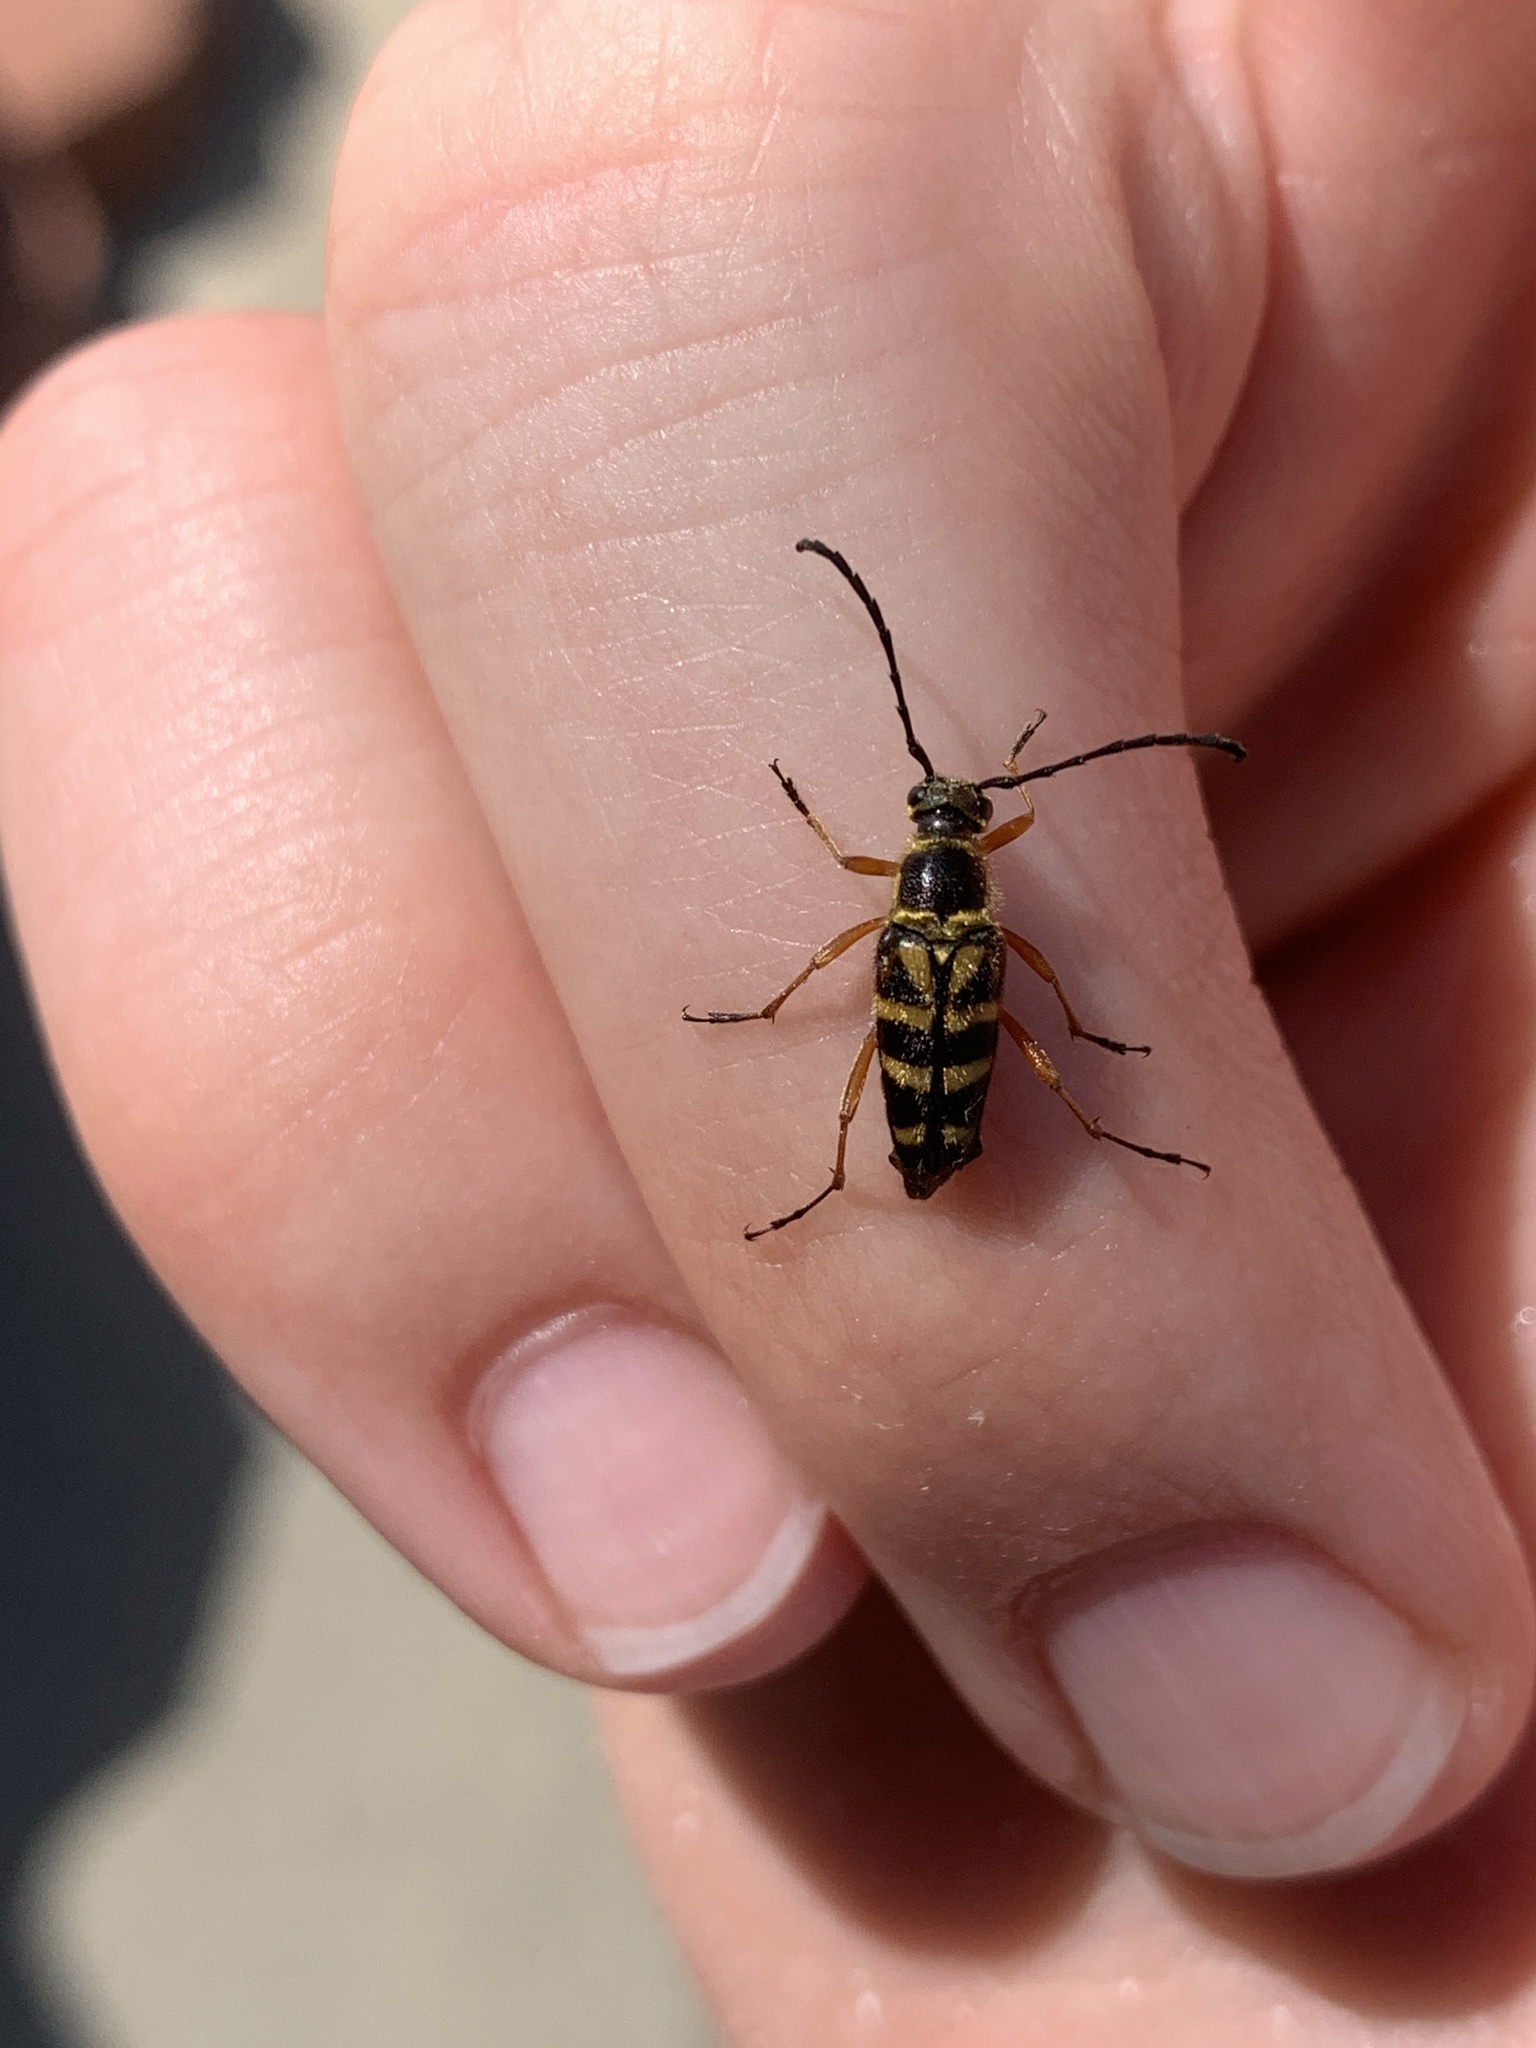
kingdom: Animalia
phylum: Arthropoda
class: Insecta
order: Coleoptera
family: Cerambycidae
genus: Typocerus
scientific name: Typocerus zebra
